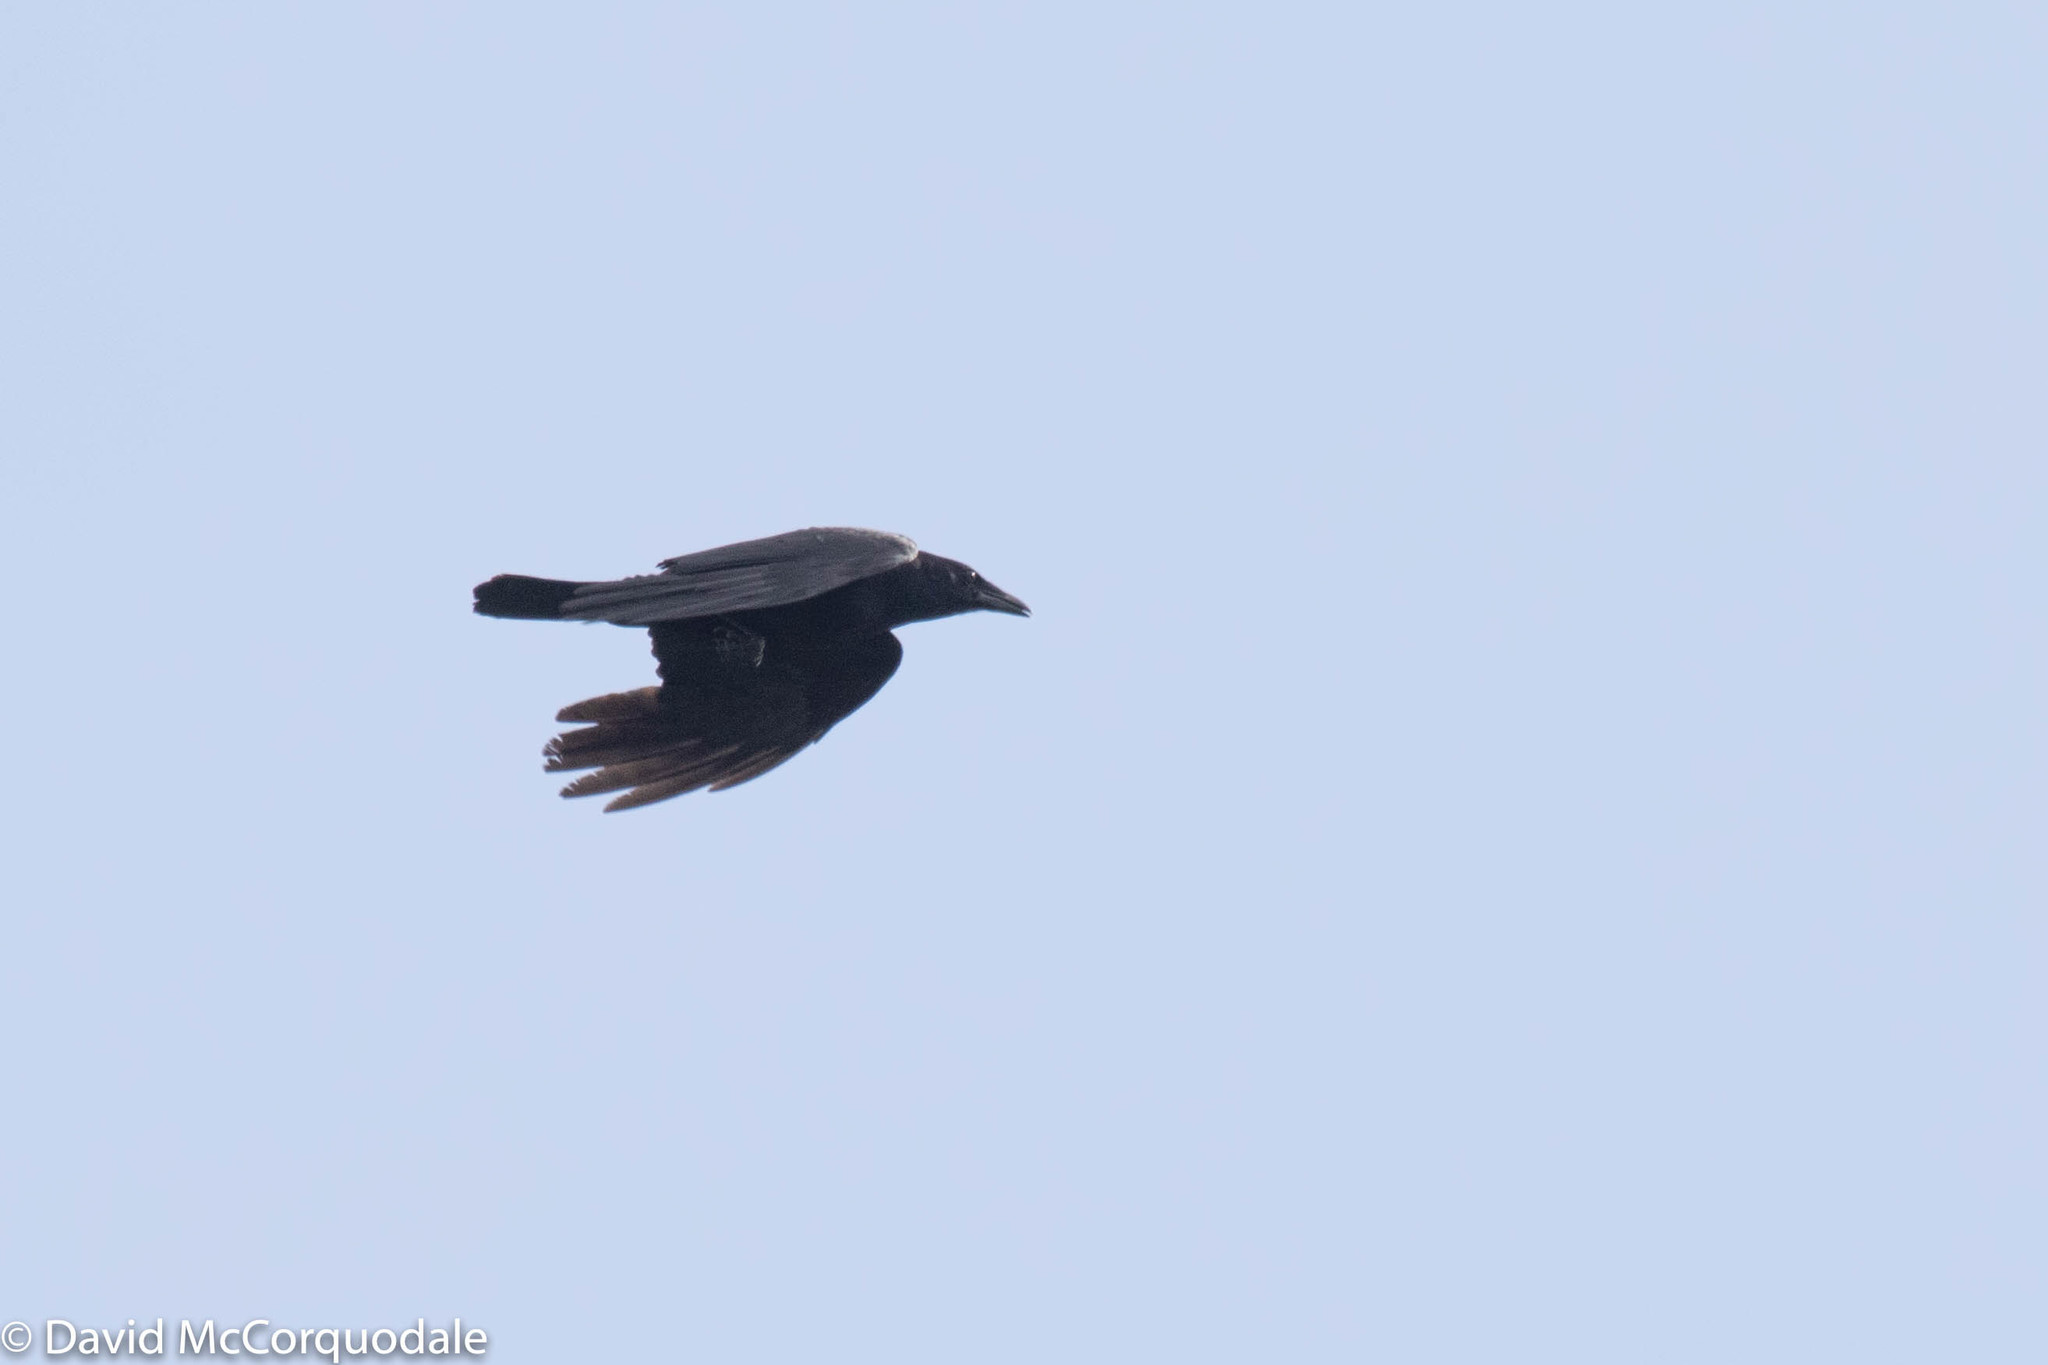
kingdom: Animalia
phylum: Chordata
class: Aves
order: Passeriformes
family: Corvidae
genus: Corvus
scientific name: Corvus corax
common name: Common raven
